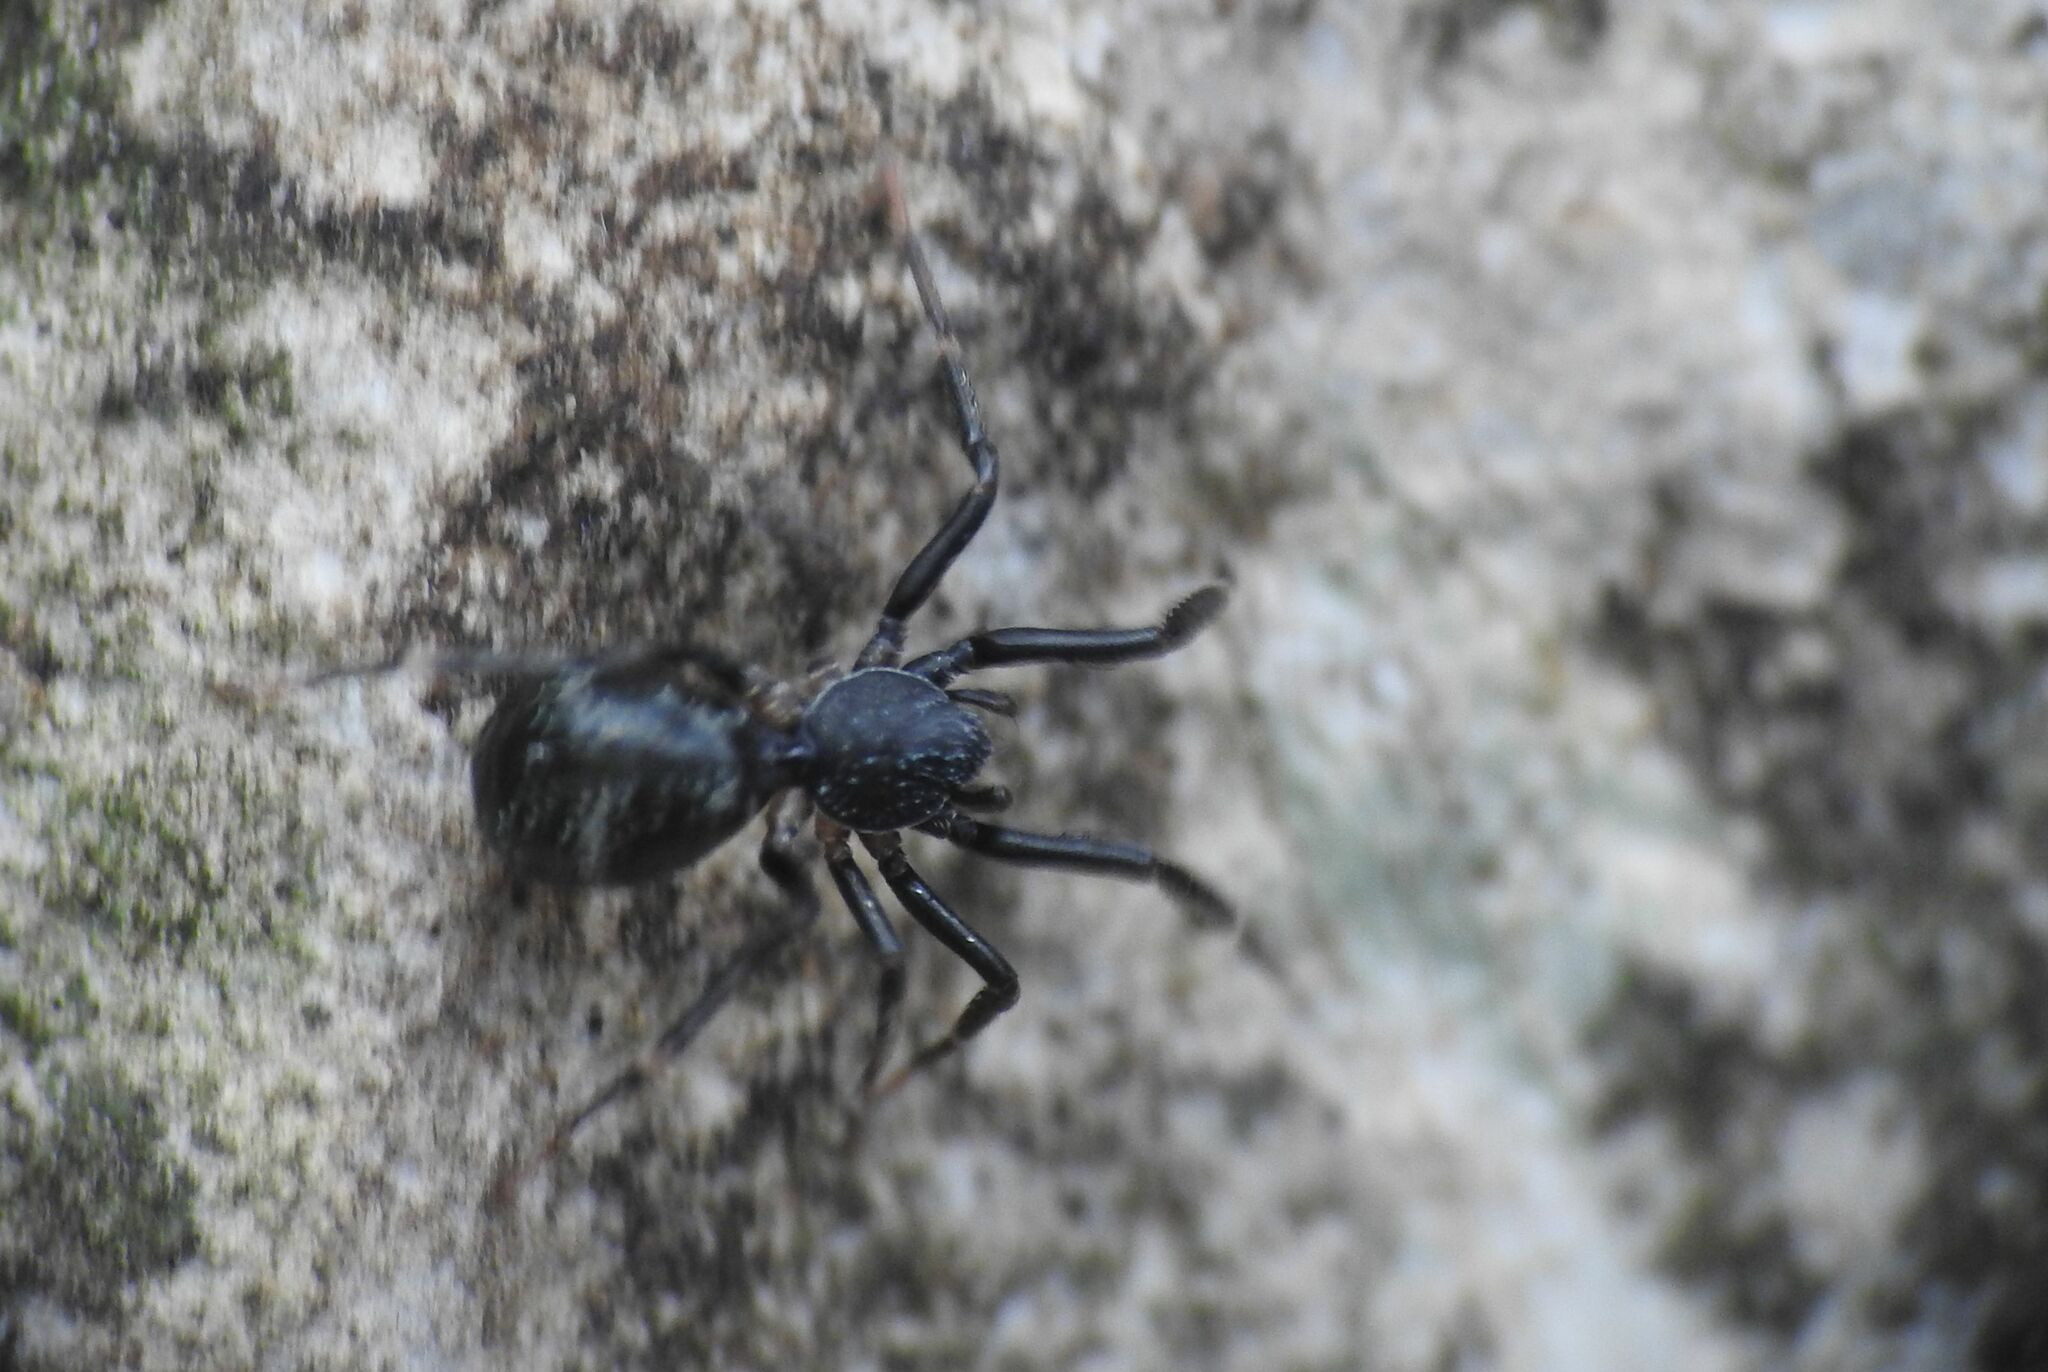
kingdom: Animalia
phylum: Arthropoda
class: Arachnida
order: Araneae
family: Phrurolithidae
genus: Liophrurillus
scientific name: Liophrurillus flavitarsis
